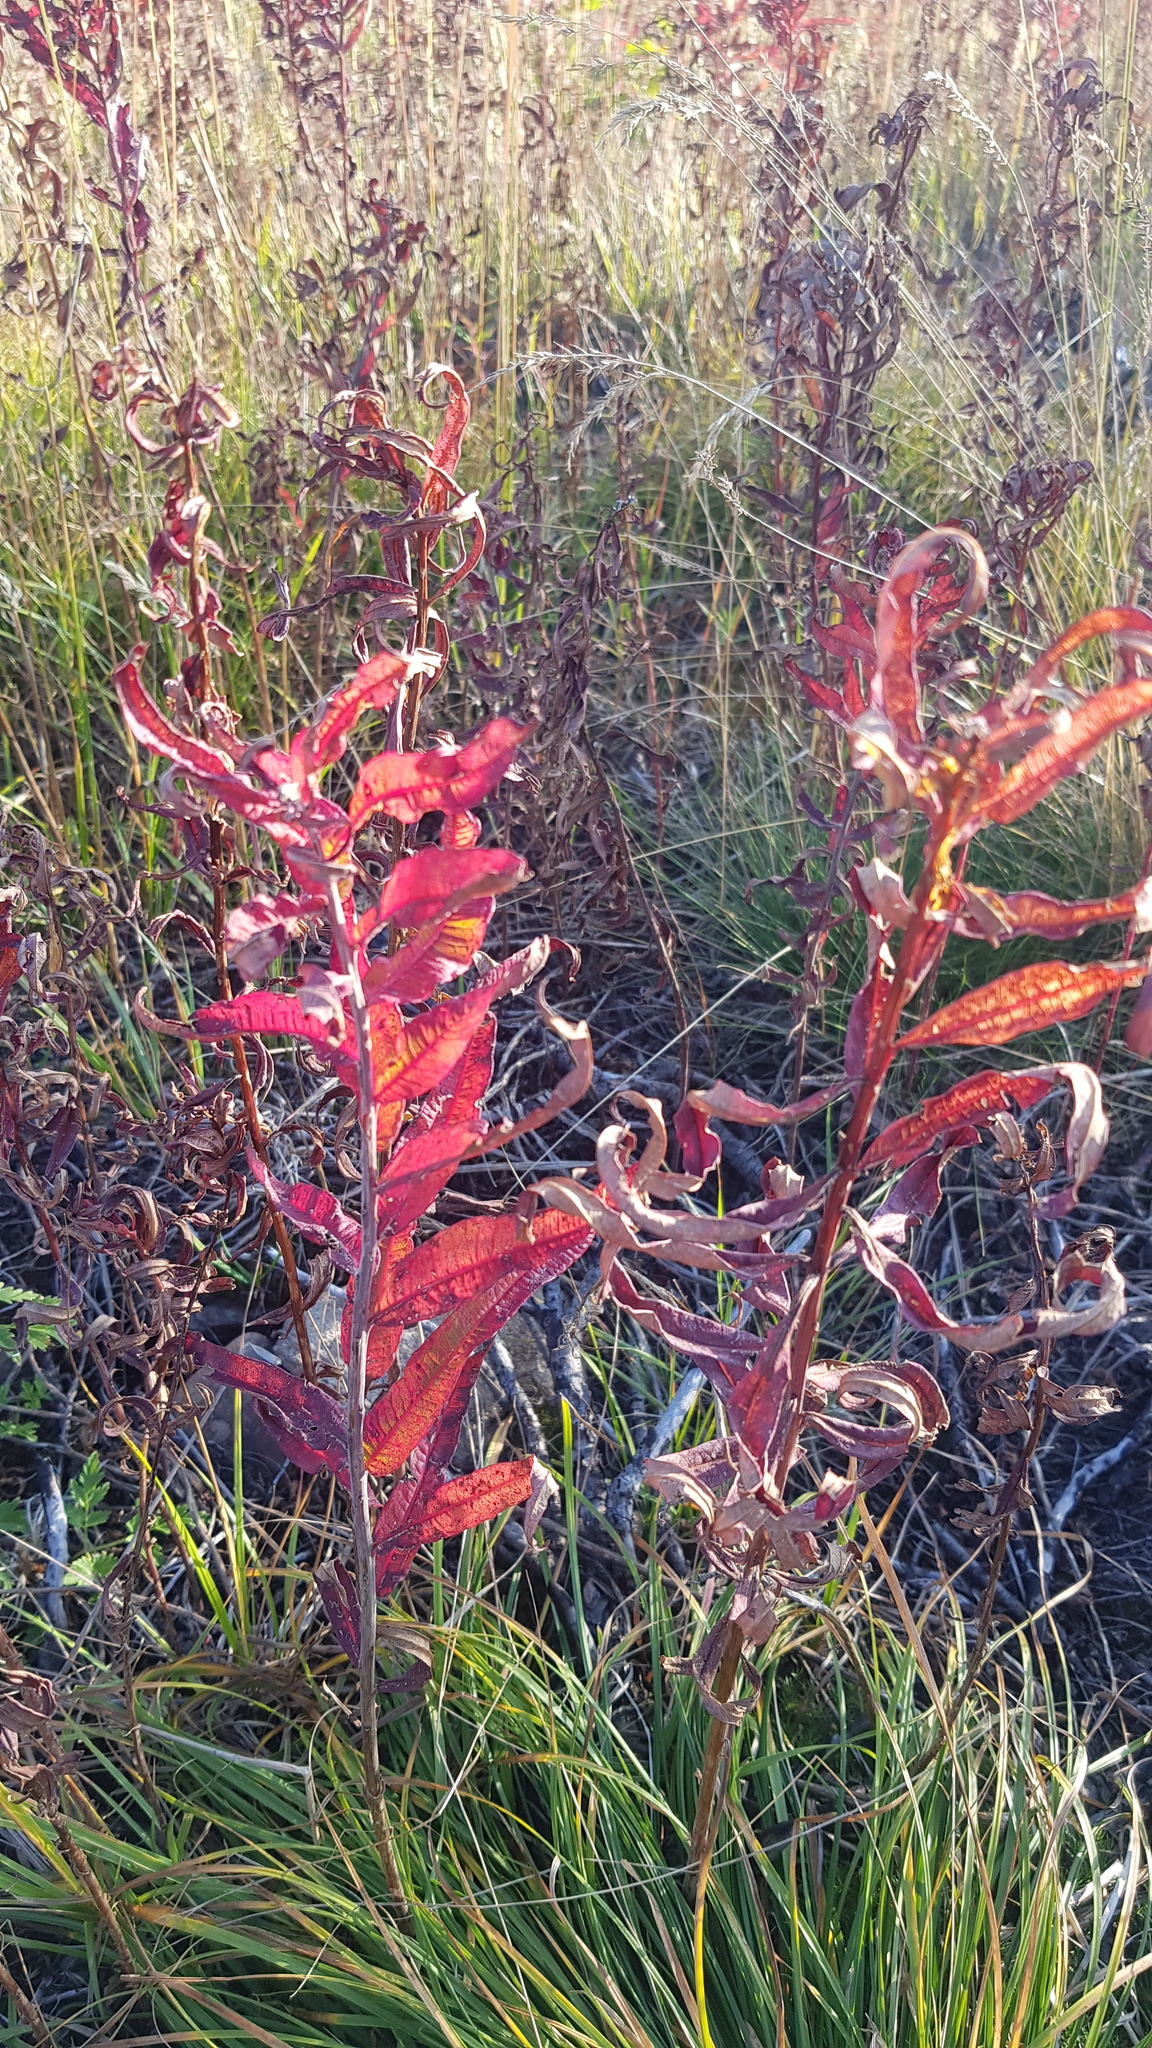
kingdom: Plantae
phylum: Tracheophyta
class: Magnoliopsida
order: Myrtales
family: Onagraceae
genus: Chamaenerion
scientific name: Chamaenerion angustifolium
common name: Fireweed
